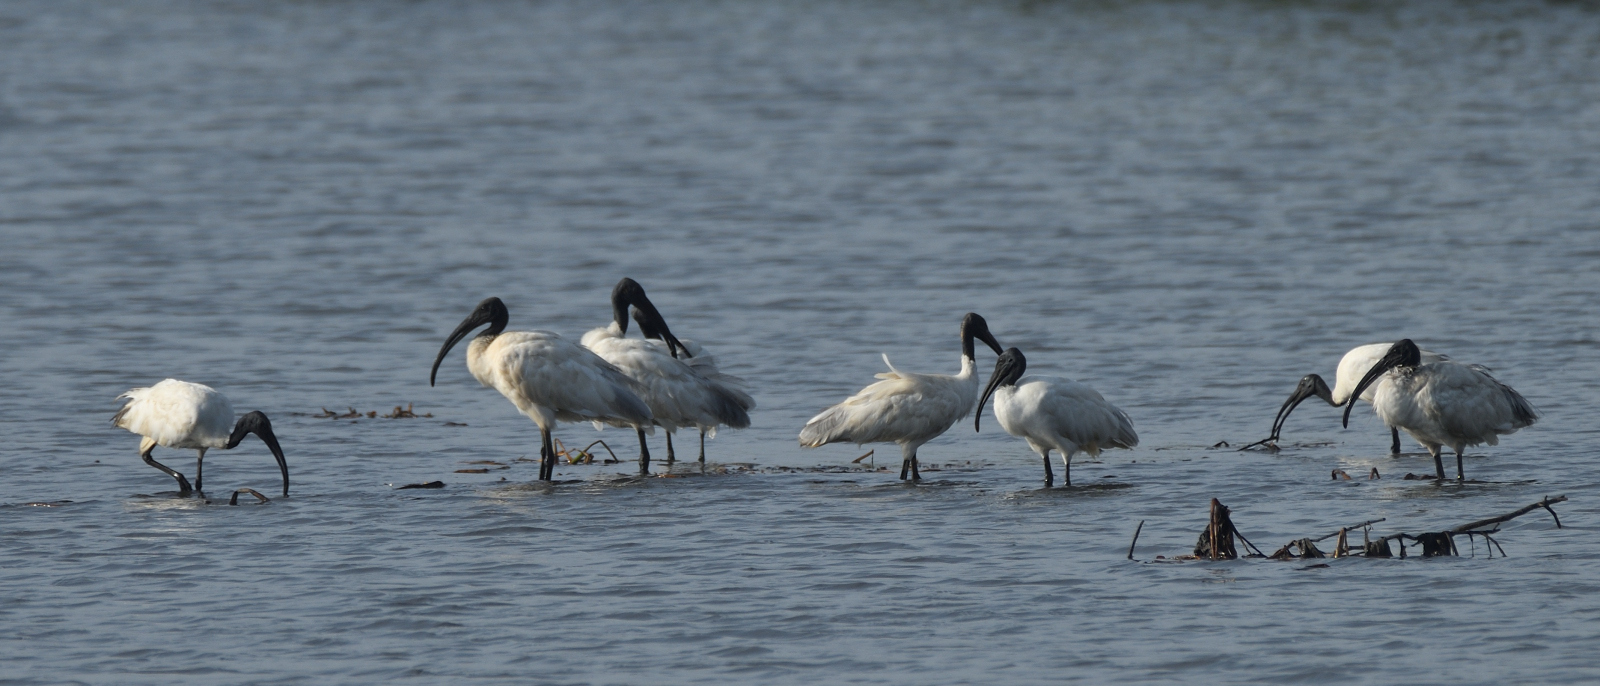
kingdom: Animalia
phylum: Chordata
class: Aves
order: Pelecaniformes
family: Threskiornithidae
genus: Threskiornis
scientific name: Threskiornis melanocephalus
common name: Black-headed ibis
